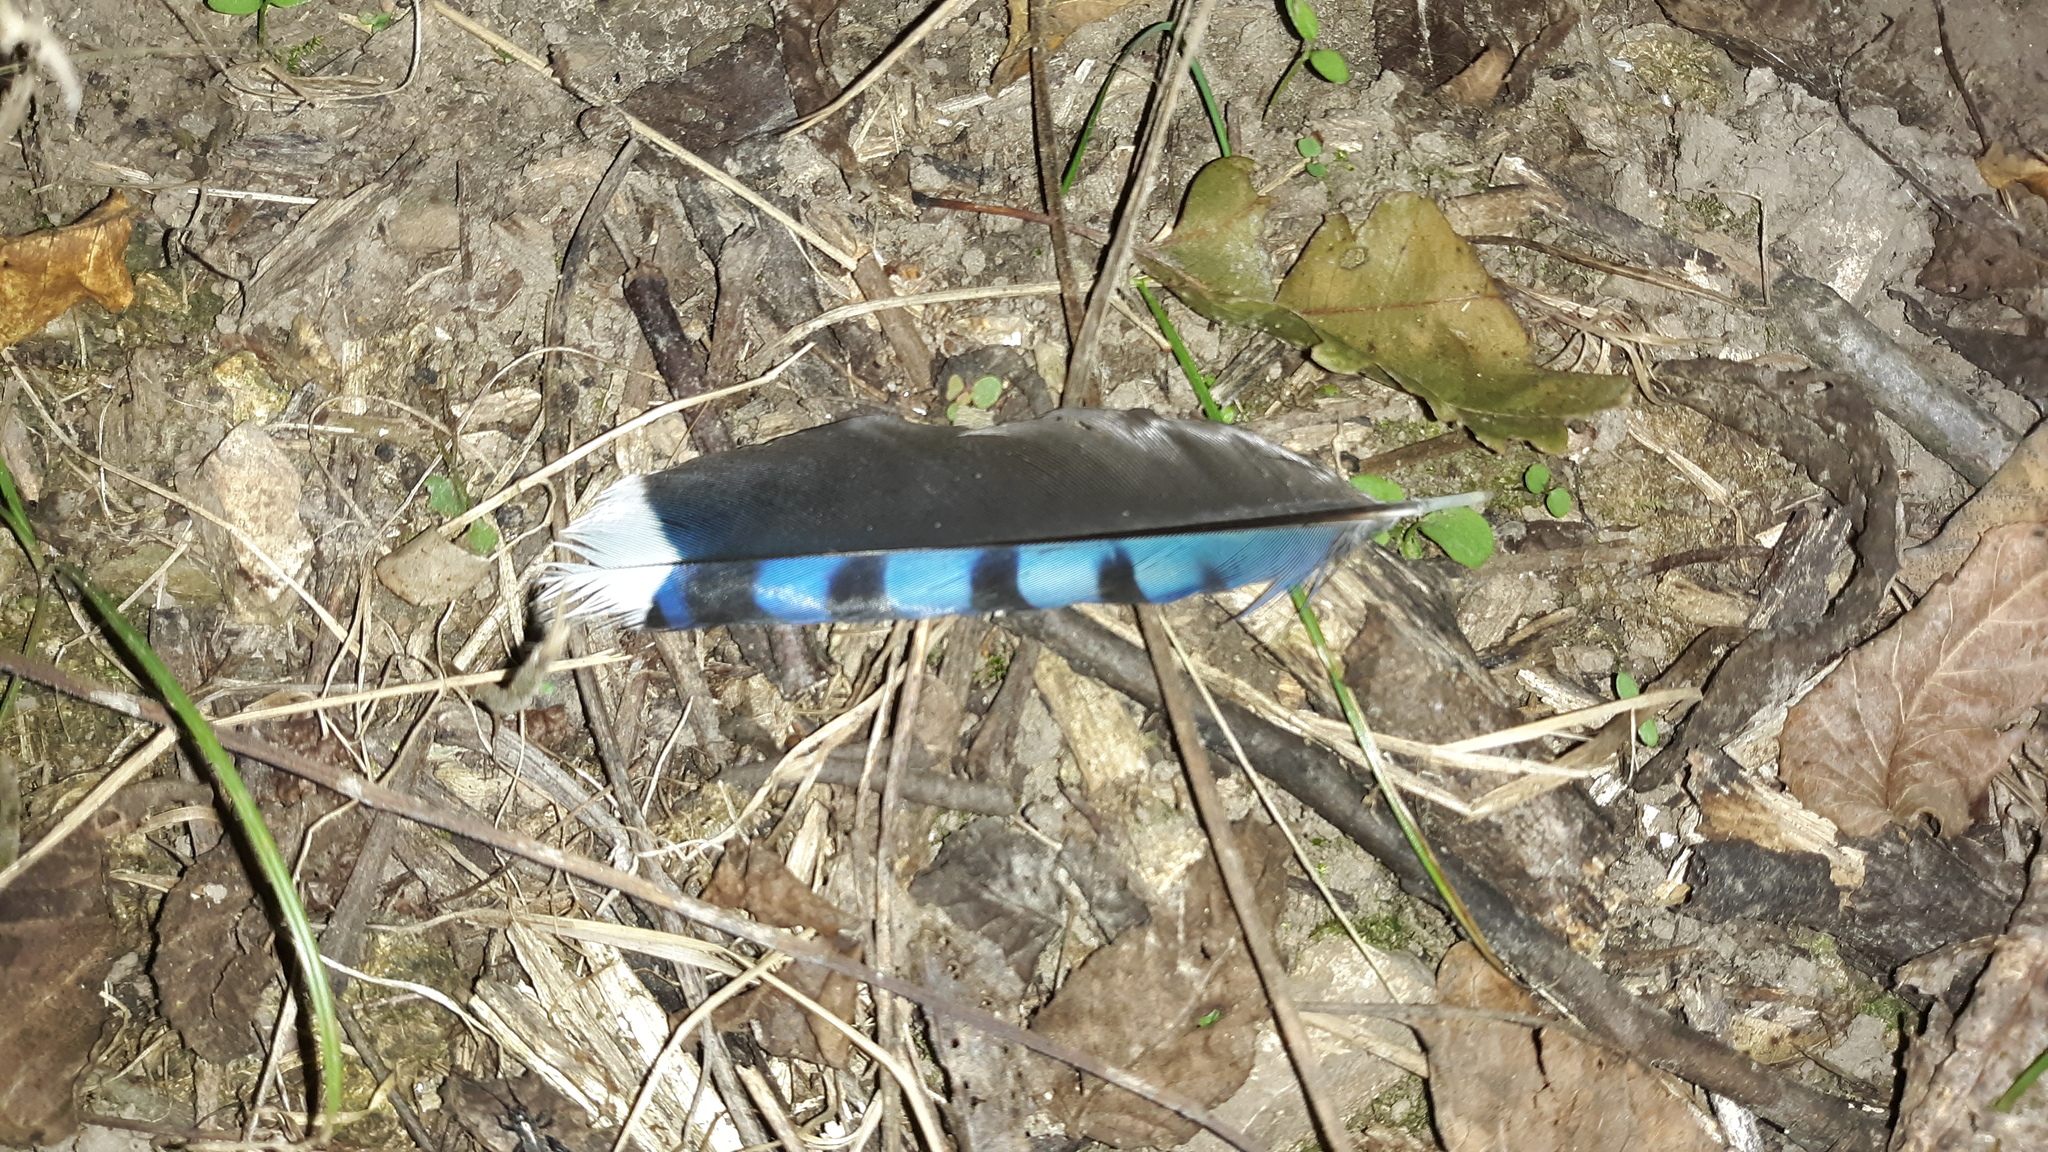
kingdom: Animalia
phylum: Chordata
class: Aves
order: Passeriformes
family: Corvidae
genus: Cyanocitta
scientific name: Cyanocitta cristata
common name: Blue jay
